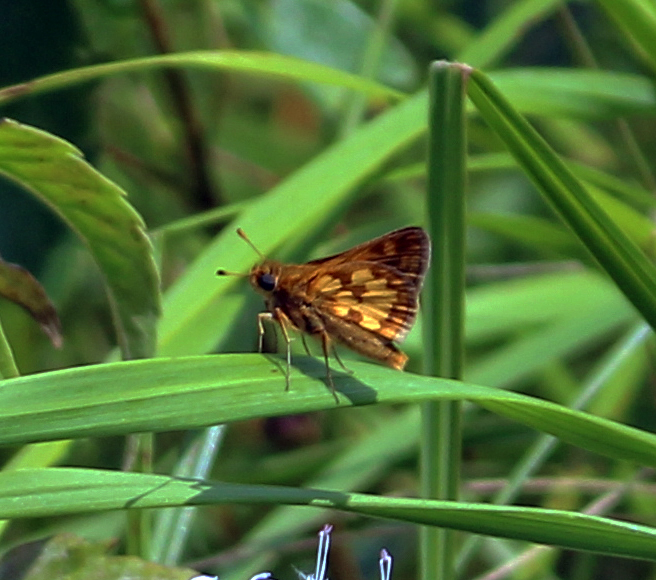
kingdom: Animalia
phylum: Arthropoda
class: Insecta
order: Lepidoptera
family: Hesperiidae
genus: Polites
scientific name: Polites coras
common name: Peck's skipper
